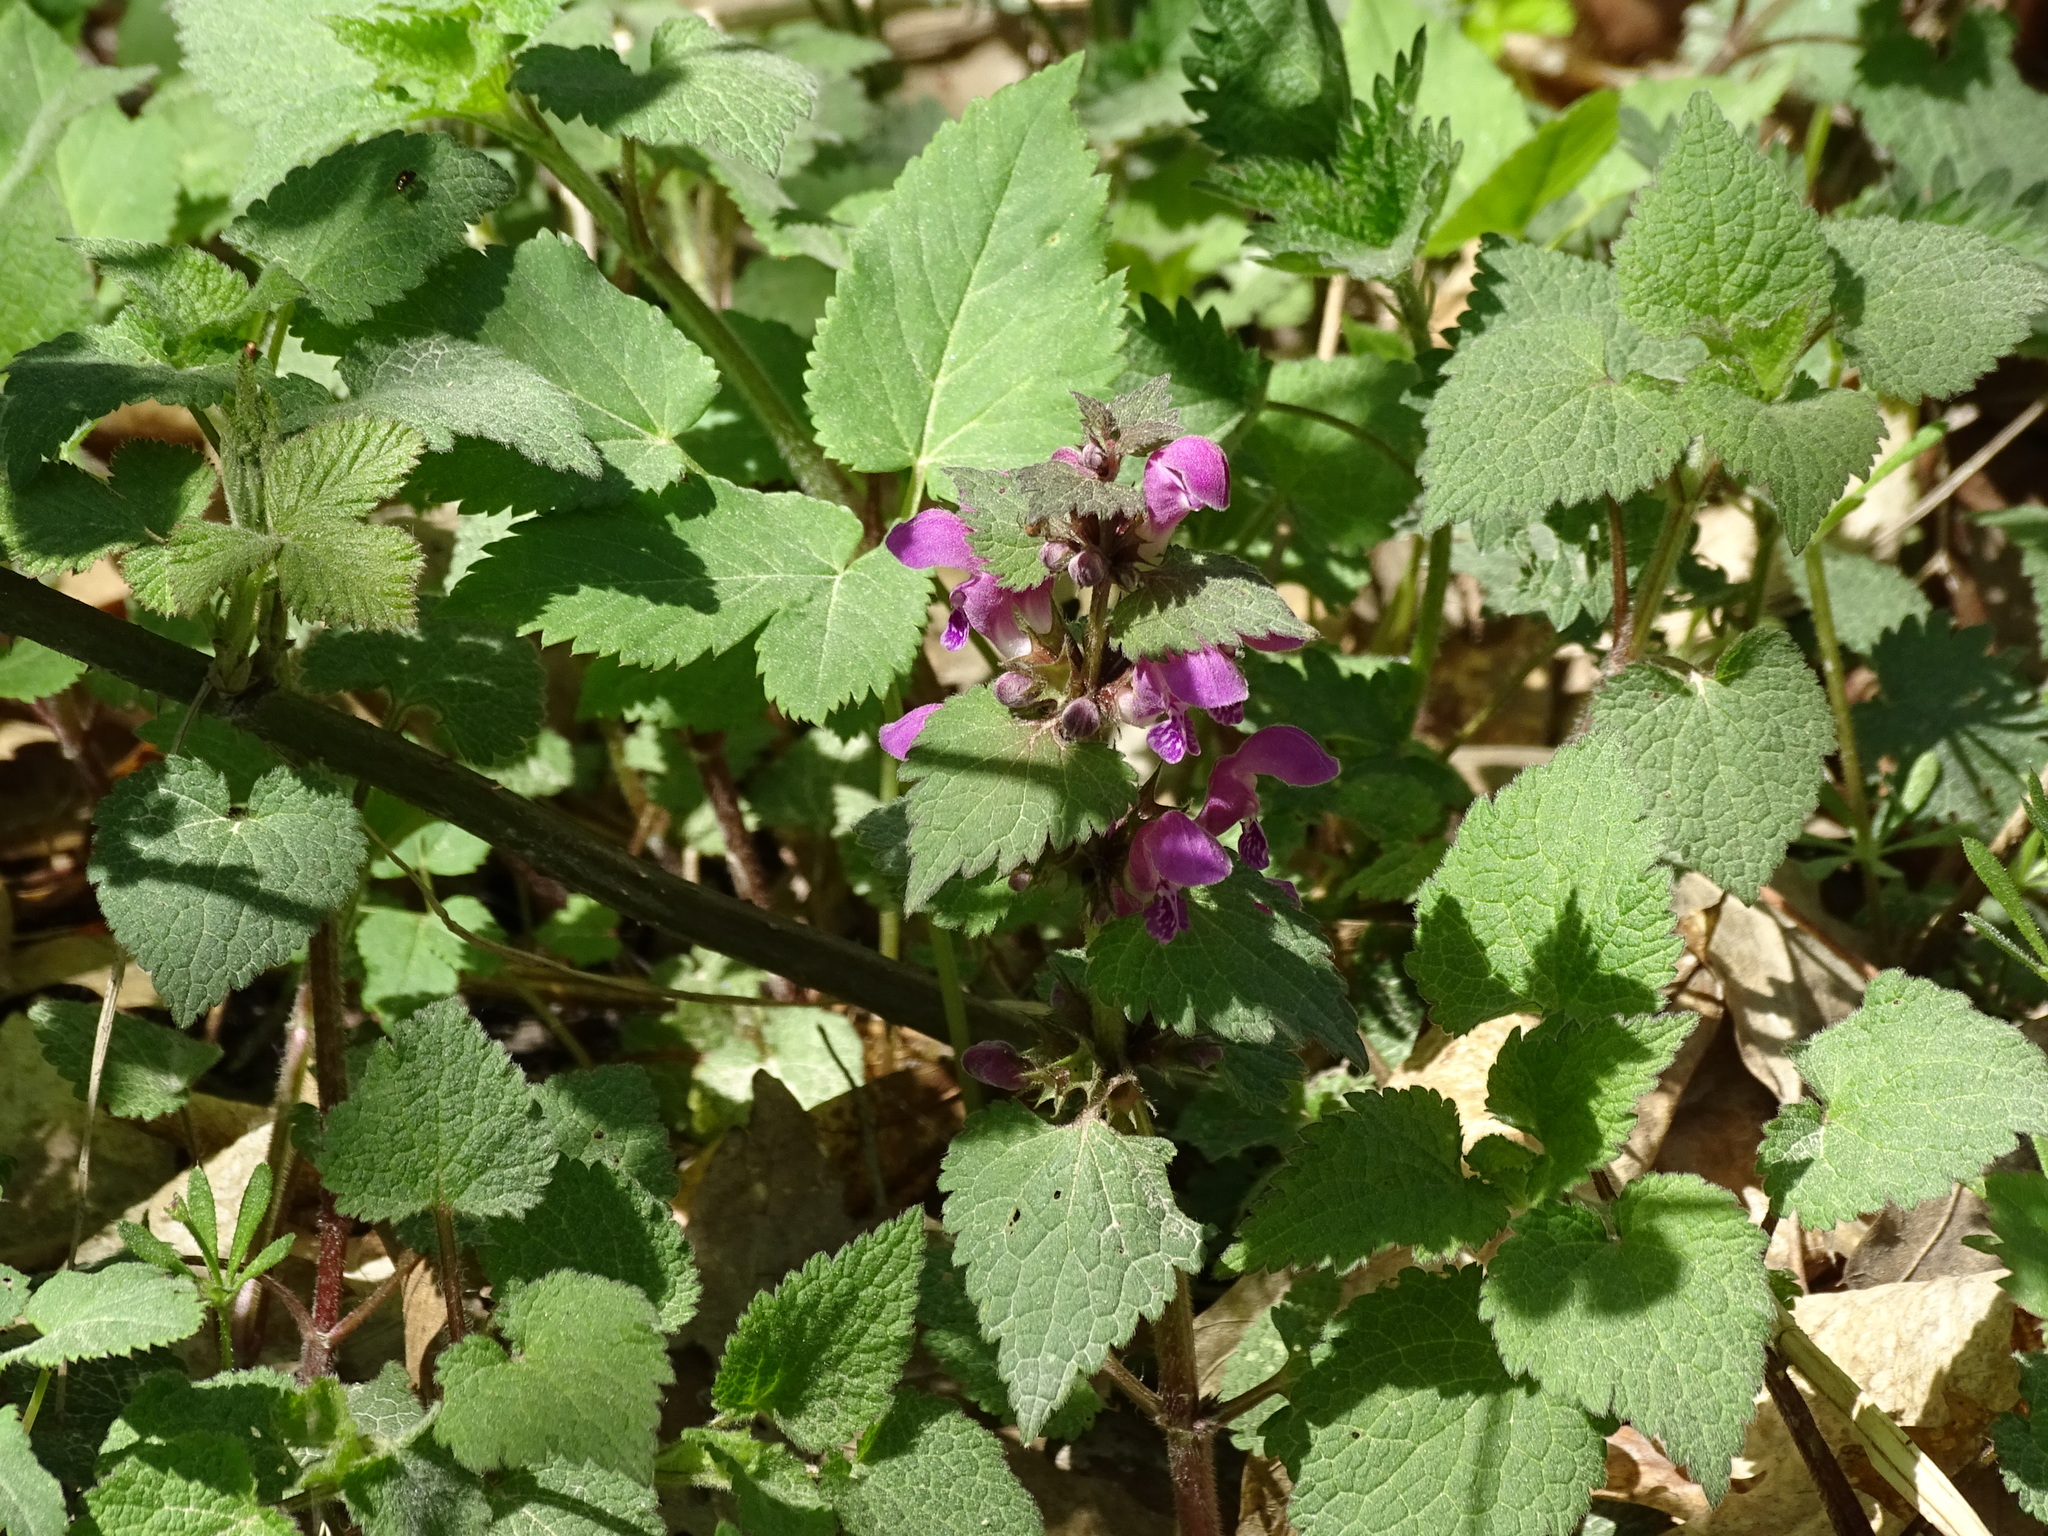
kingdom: Plantae
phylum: Tracheophyta
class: Magnoliopsida
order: Lamiales
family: Lamiaceae
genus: Lamium
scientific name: Lamium maculatum
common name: Spotted dead-nettle
